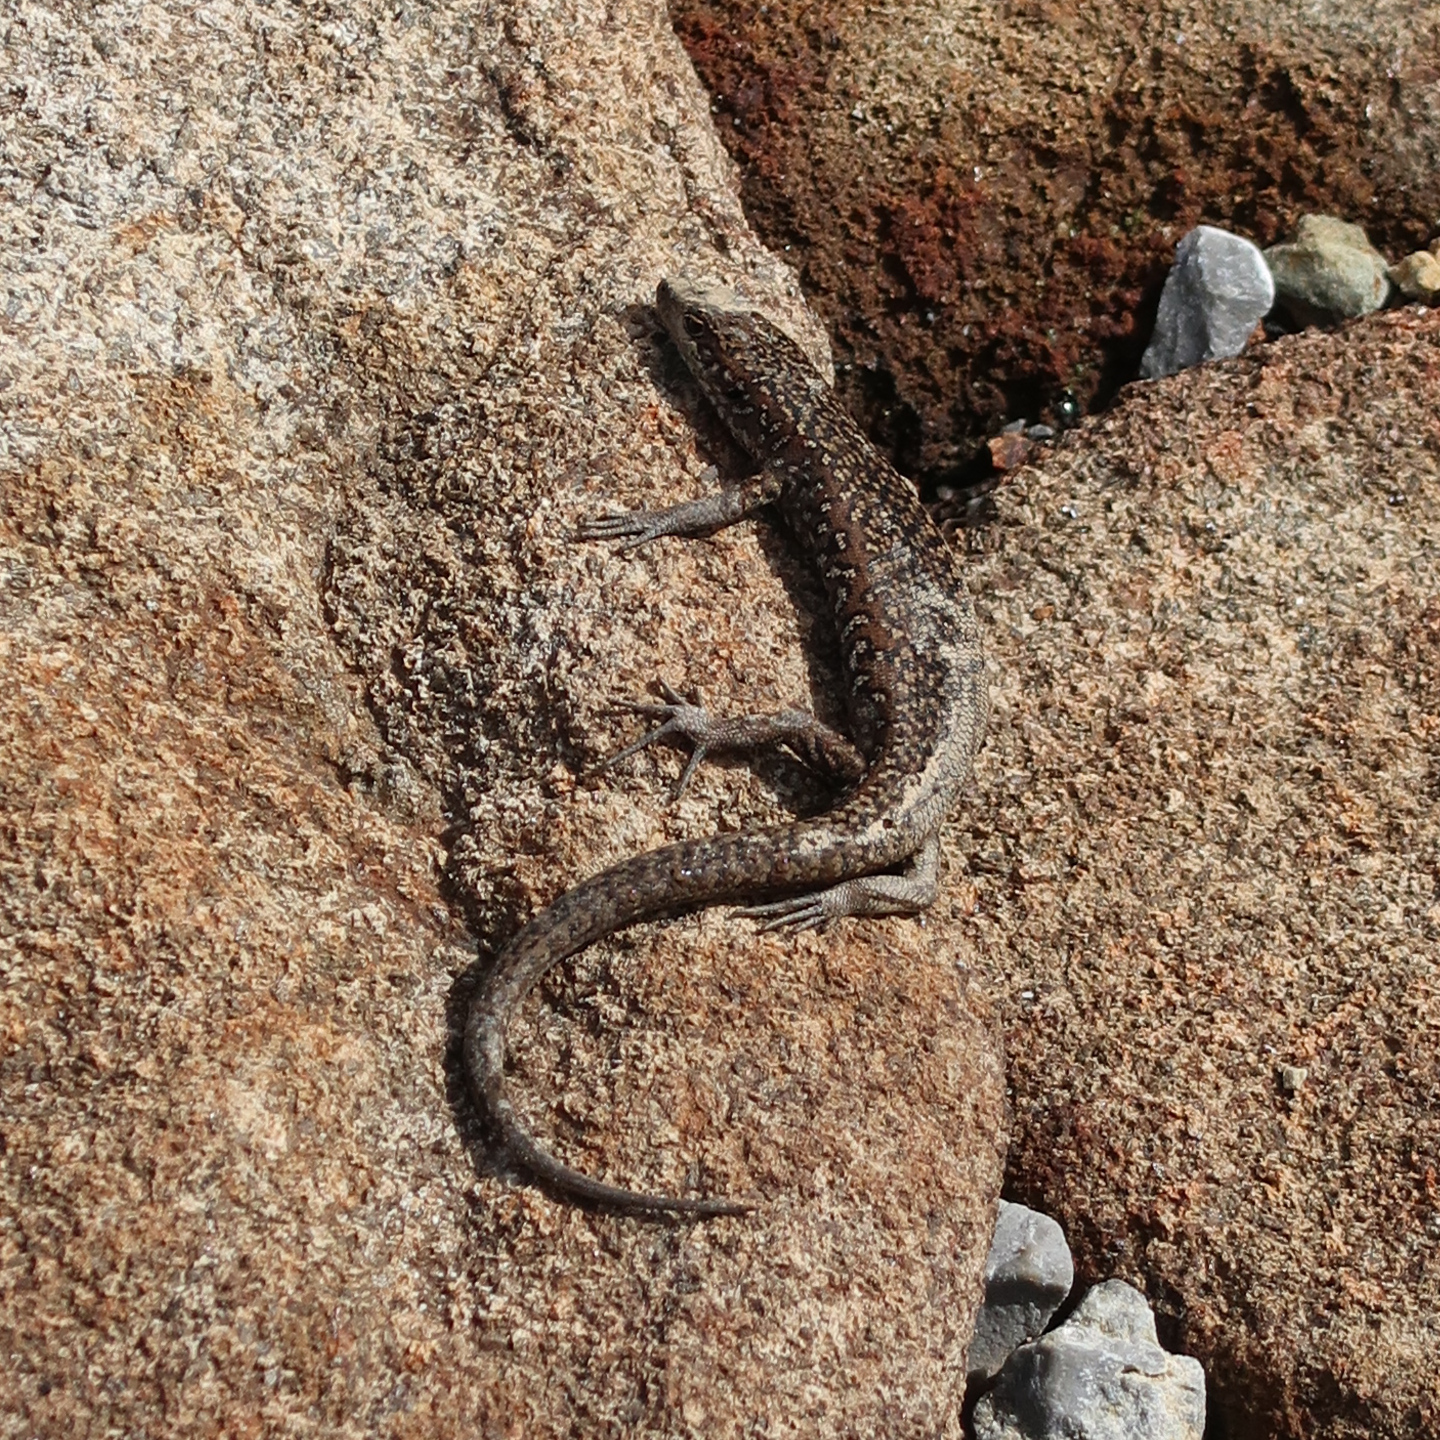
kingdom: Animalia
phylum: Chordata
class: Squamata
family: Scincidae
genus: Carinascincus
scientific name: Carinascincus ocellatus
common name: Ocellated cool-skink
